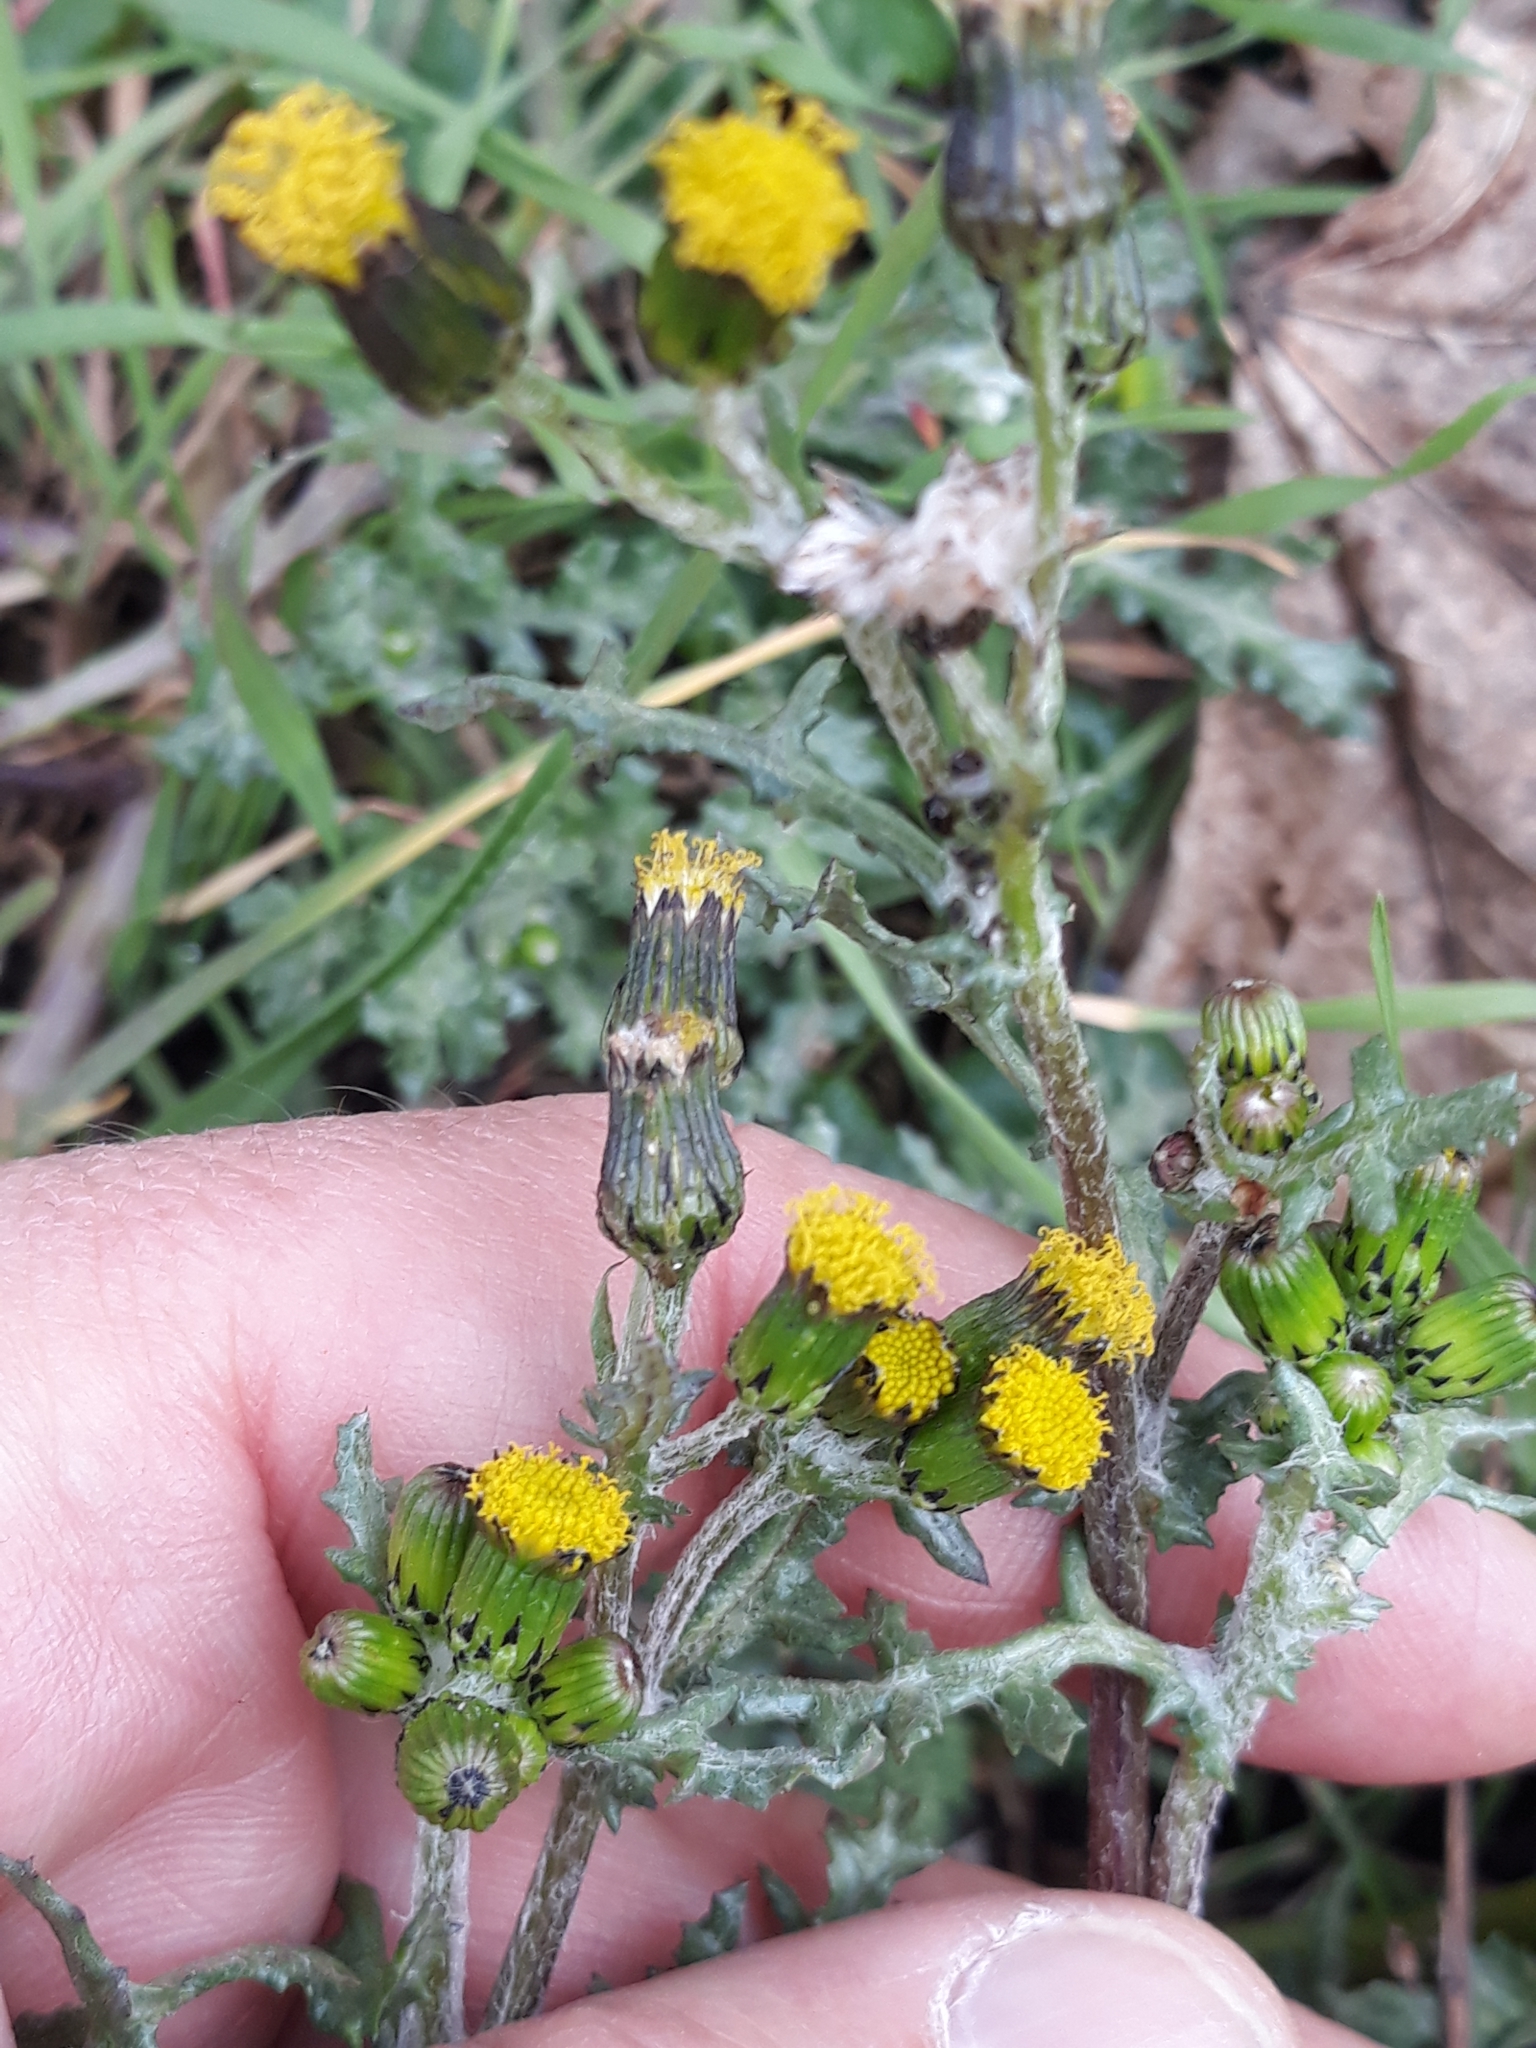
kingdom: Plantae
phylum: Tracheophyta
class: Magnoliopsida
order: Asterales
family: Asteraceae
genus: Senecio
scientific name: Senecio vulgaris
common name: Old-man-in-the-spring
